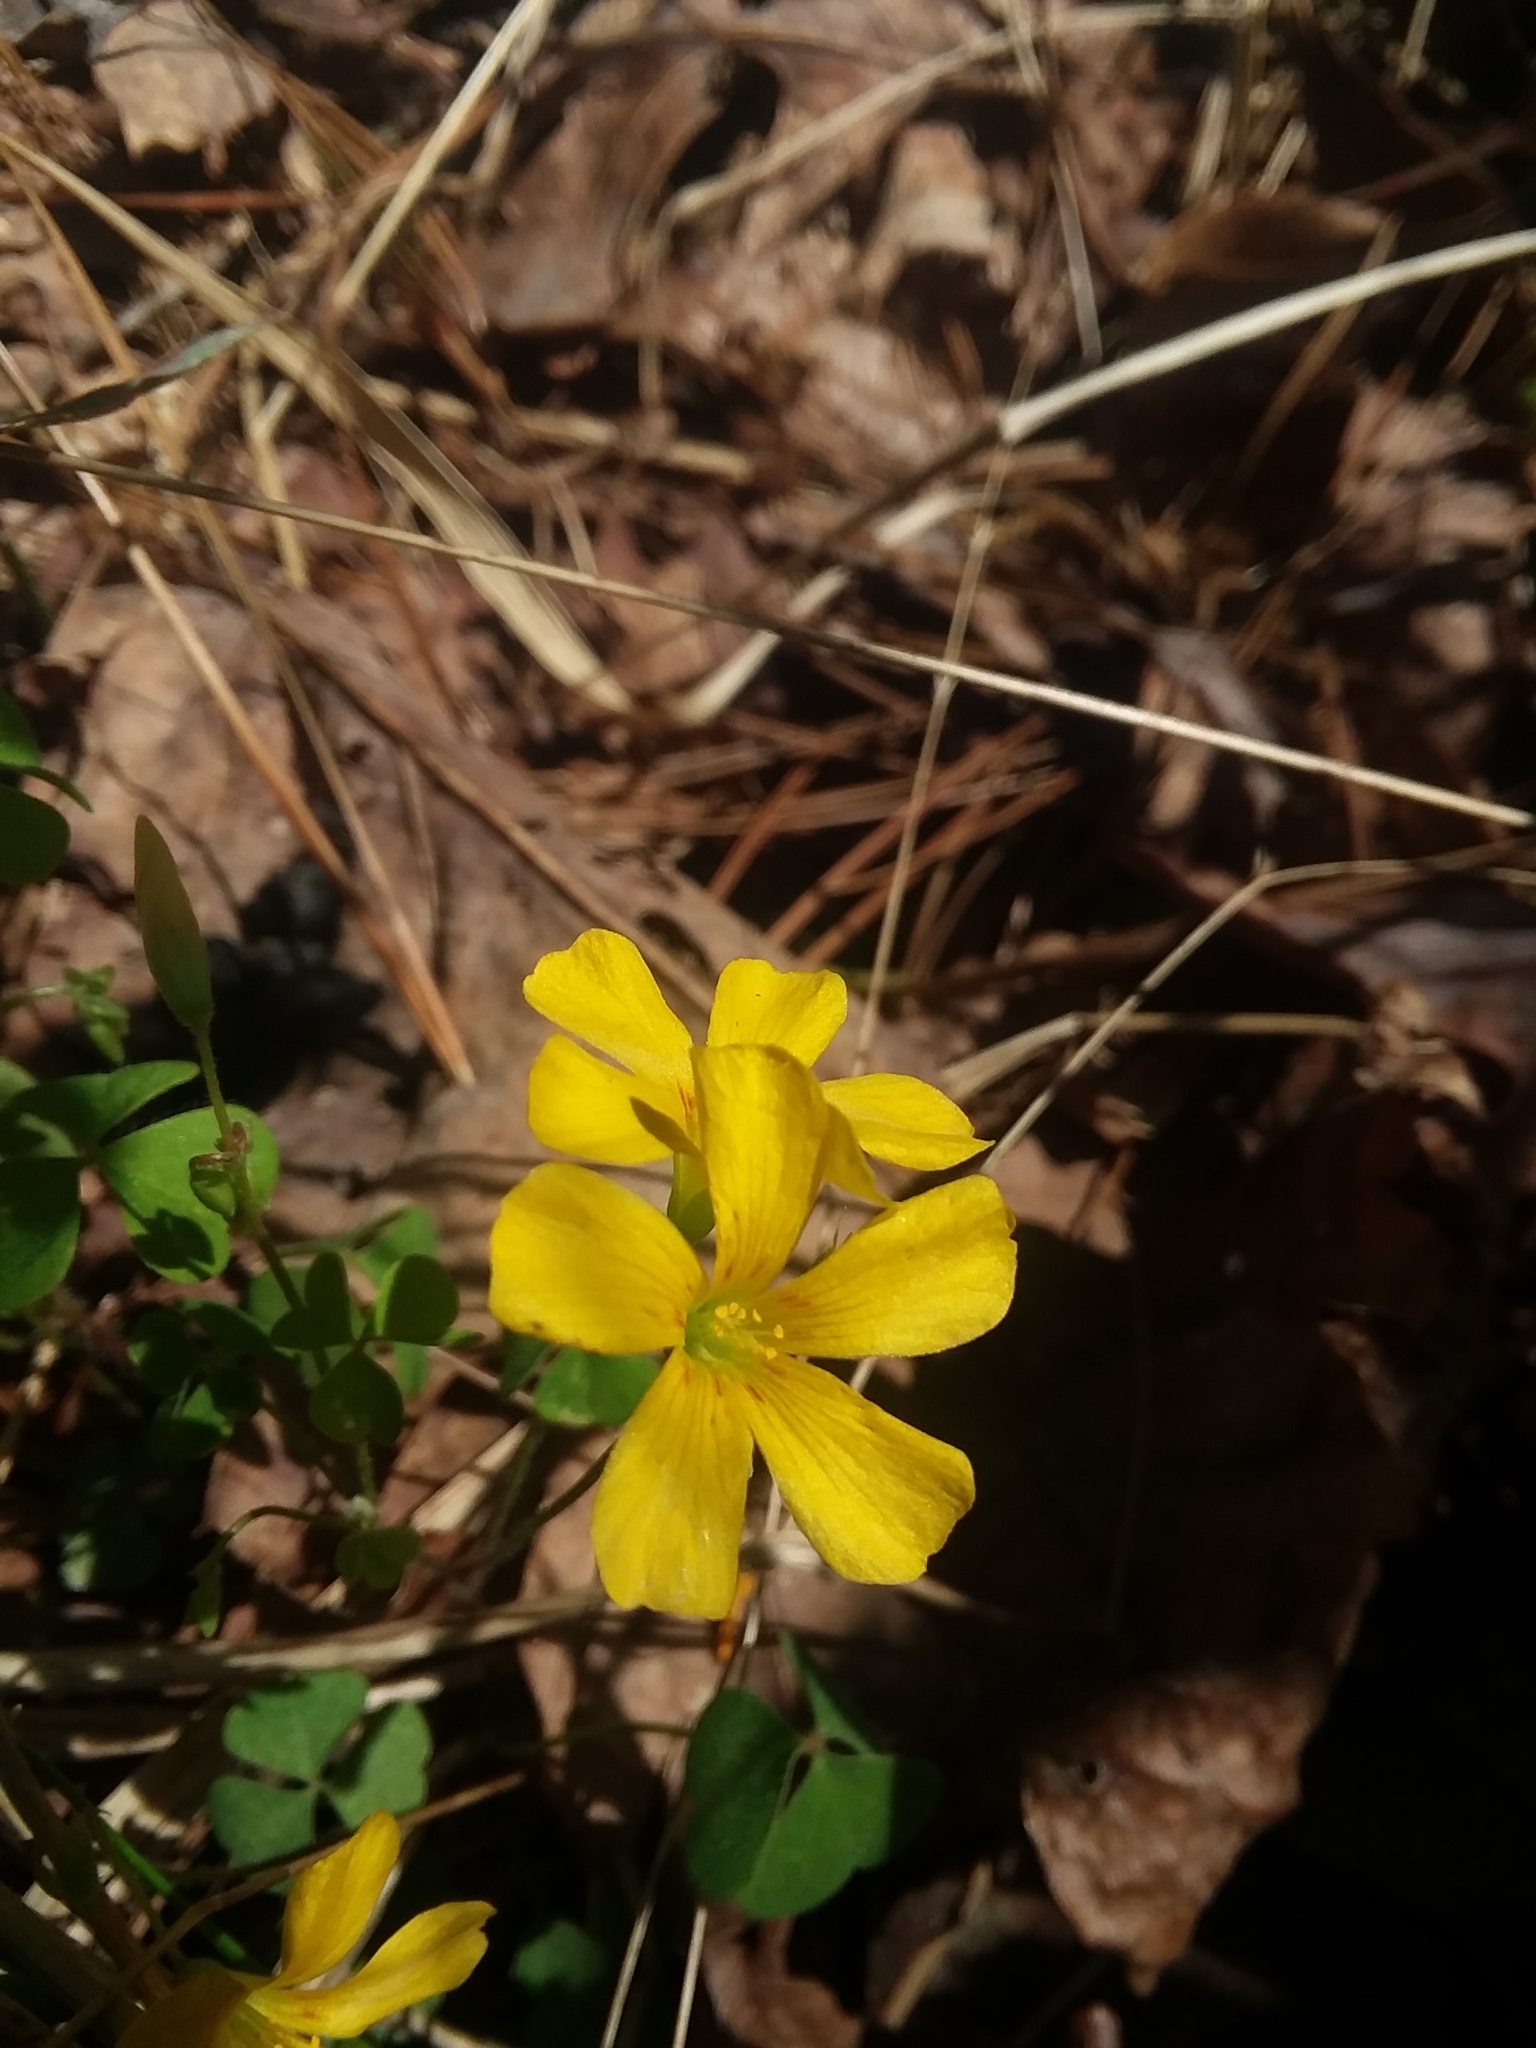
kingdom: Plantae
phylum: Tracheophyta
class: Magnoliopsida
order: Oxalidales
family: Oxalidaceae
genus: Oxalis
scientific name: Oxalis colorea
